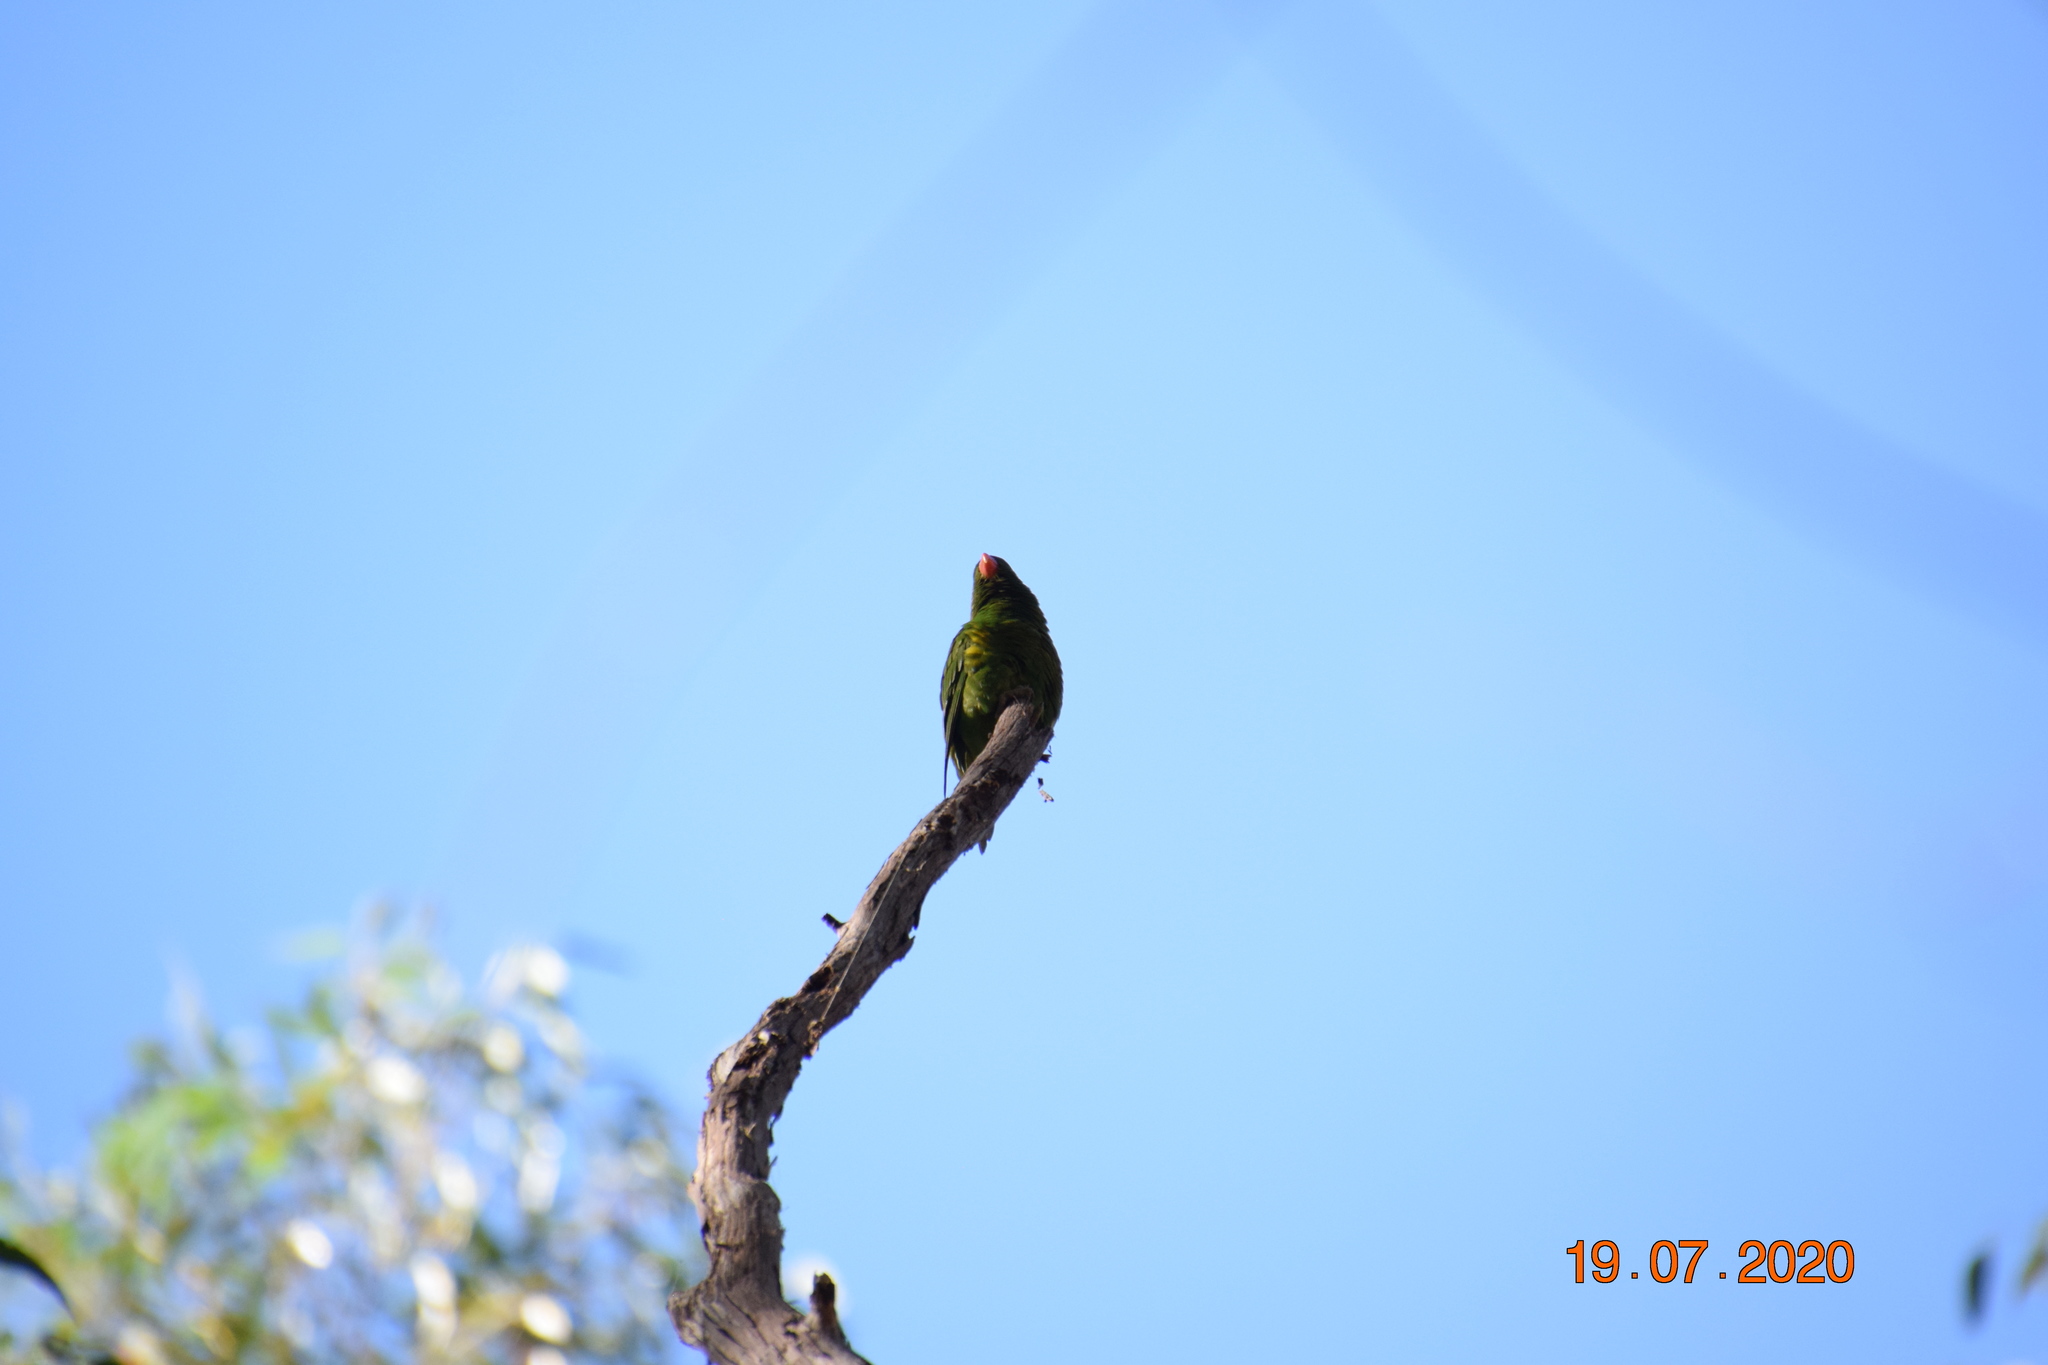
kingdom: Animalia
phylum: Chordata
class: Aves
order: Psittaciformes
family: Psittacidae
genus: Trichoglossus
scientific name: Trichoglossus chlorolepidotus
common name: Scaly-breasted lorikeet
